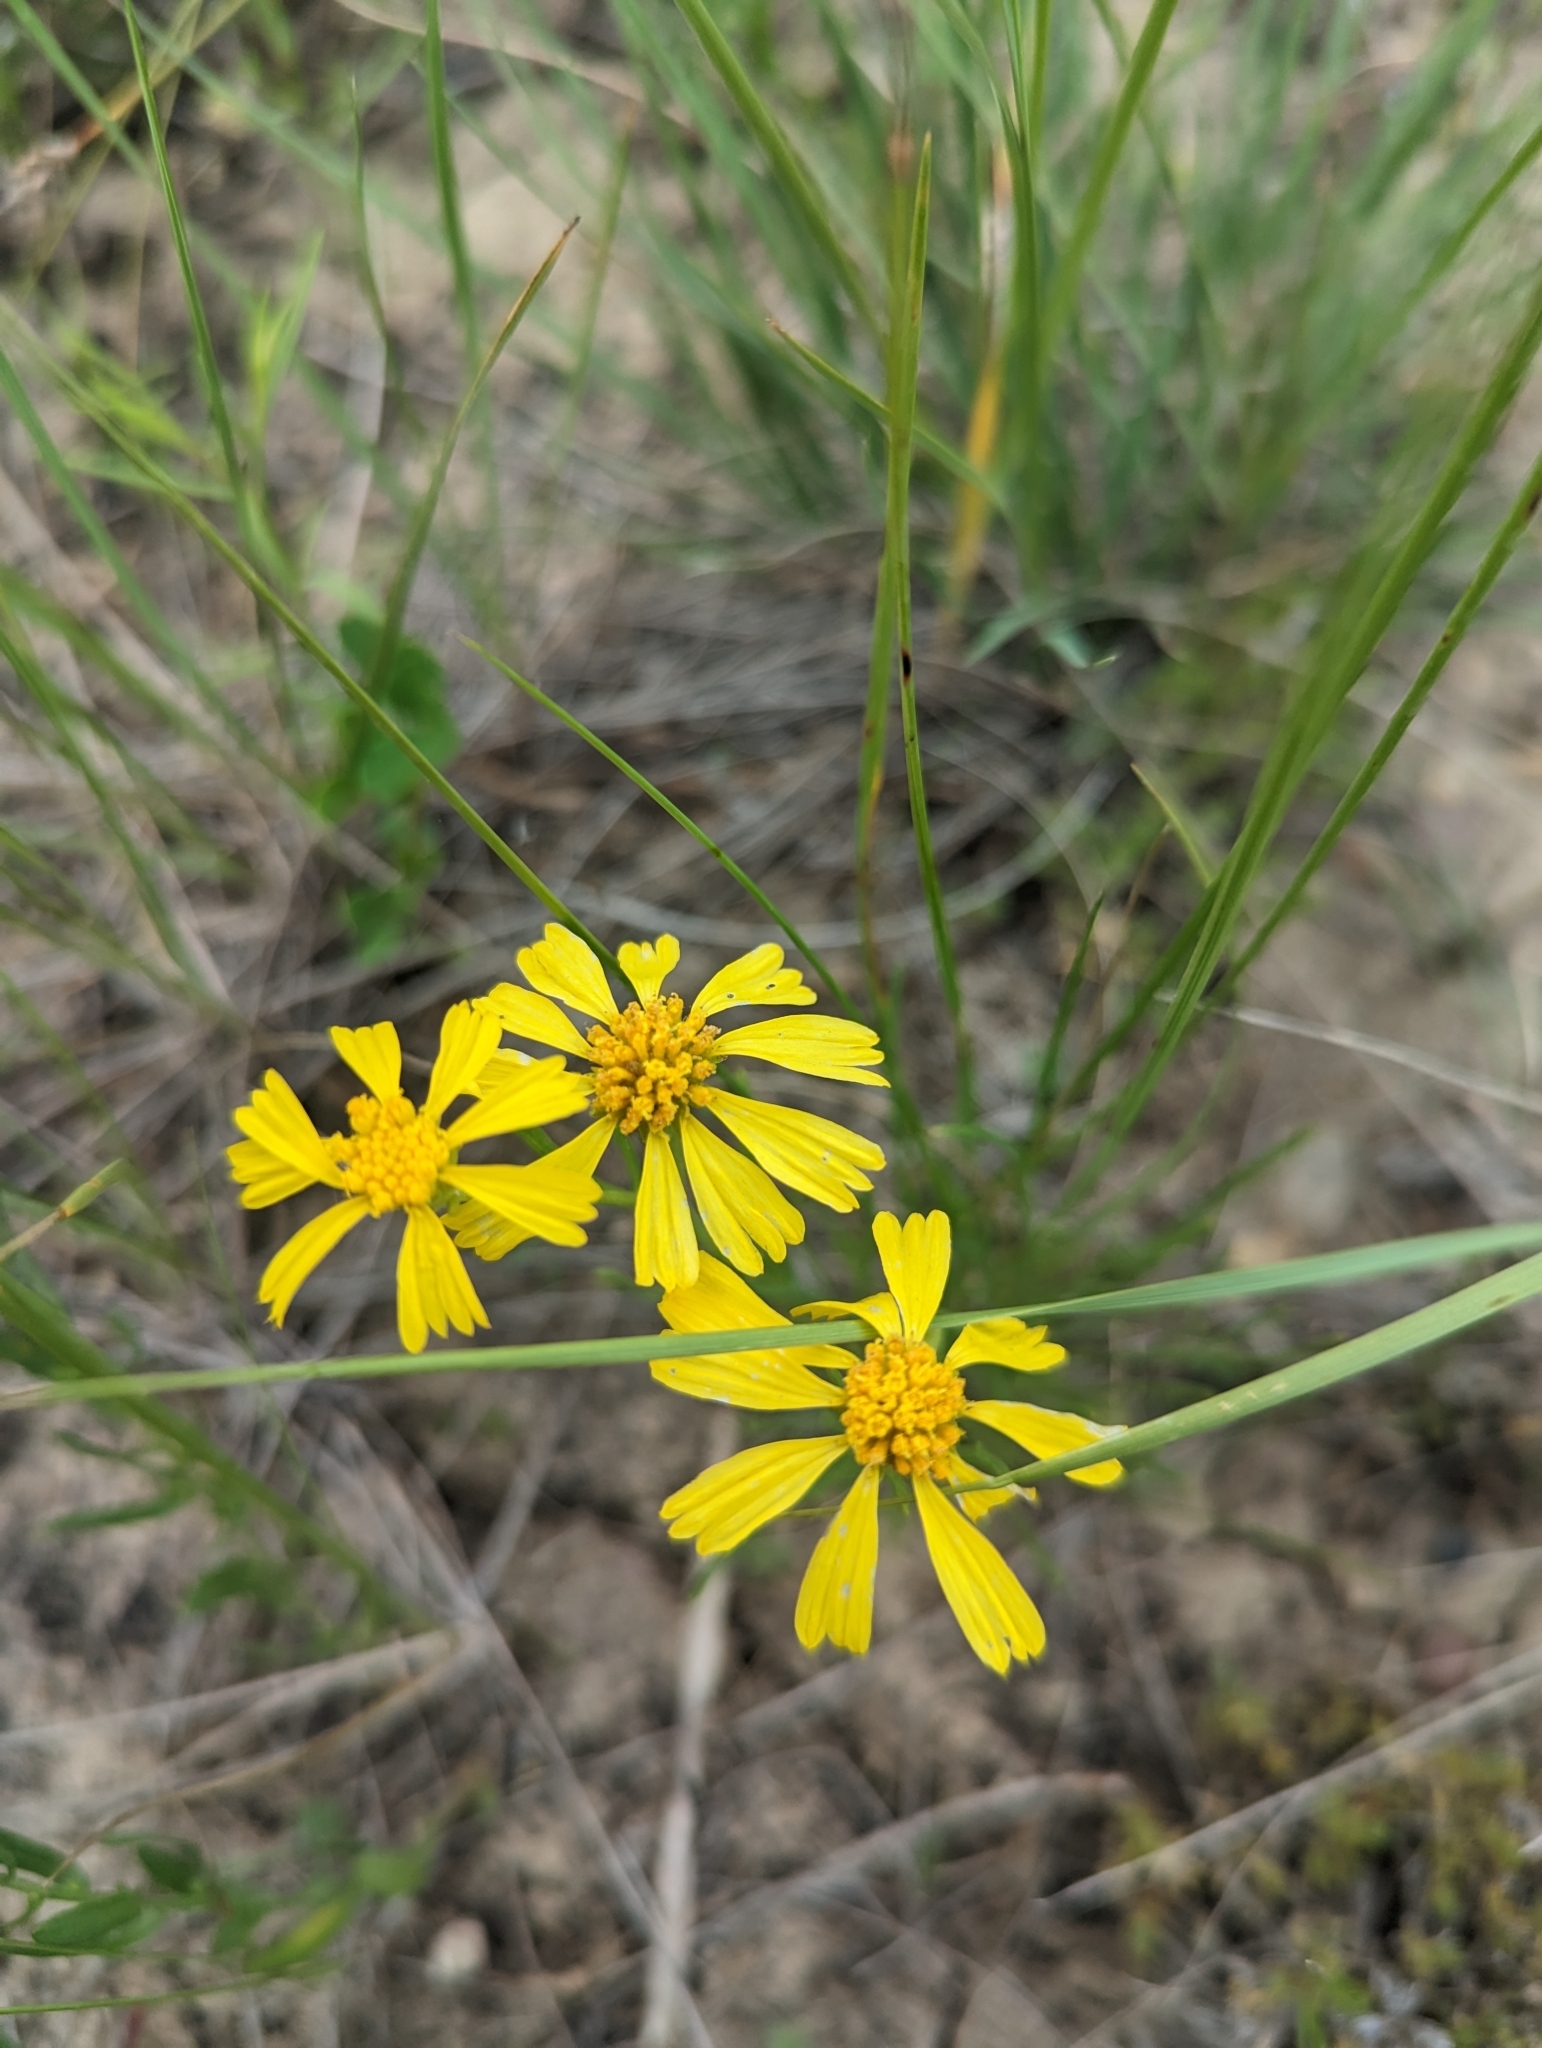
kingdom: Plantae
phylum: Tracheophyta
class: Magnoliopsida
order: Asterales
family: Asteraceae
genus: Hymenoxys
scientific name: Hymenoxys richardsonii
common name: Pingue rubberweed
